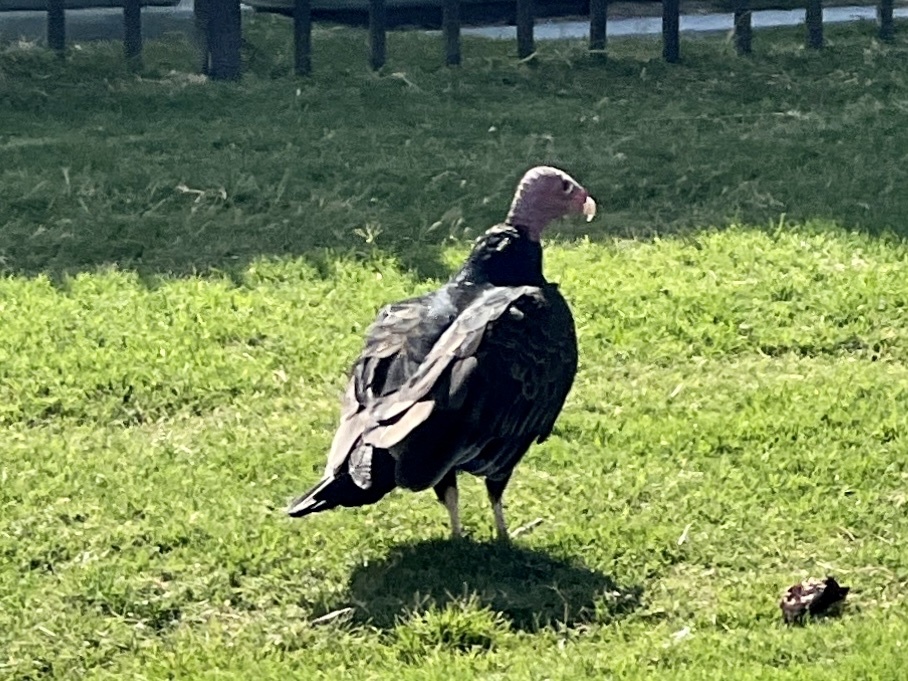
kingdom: Animalia
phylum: Chordata
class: Aves
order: Accipitriformes
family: Cathartidae
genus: Cathartes
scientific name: Cathartes aura
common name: Turkey vulture
